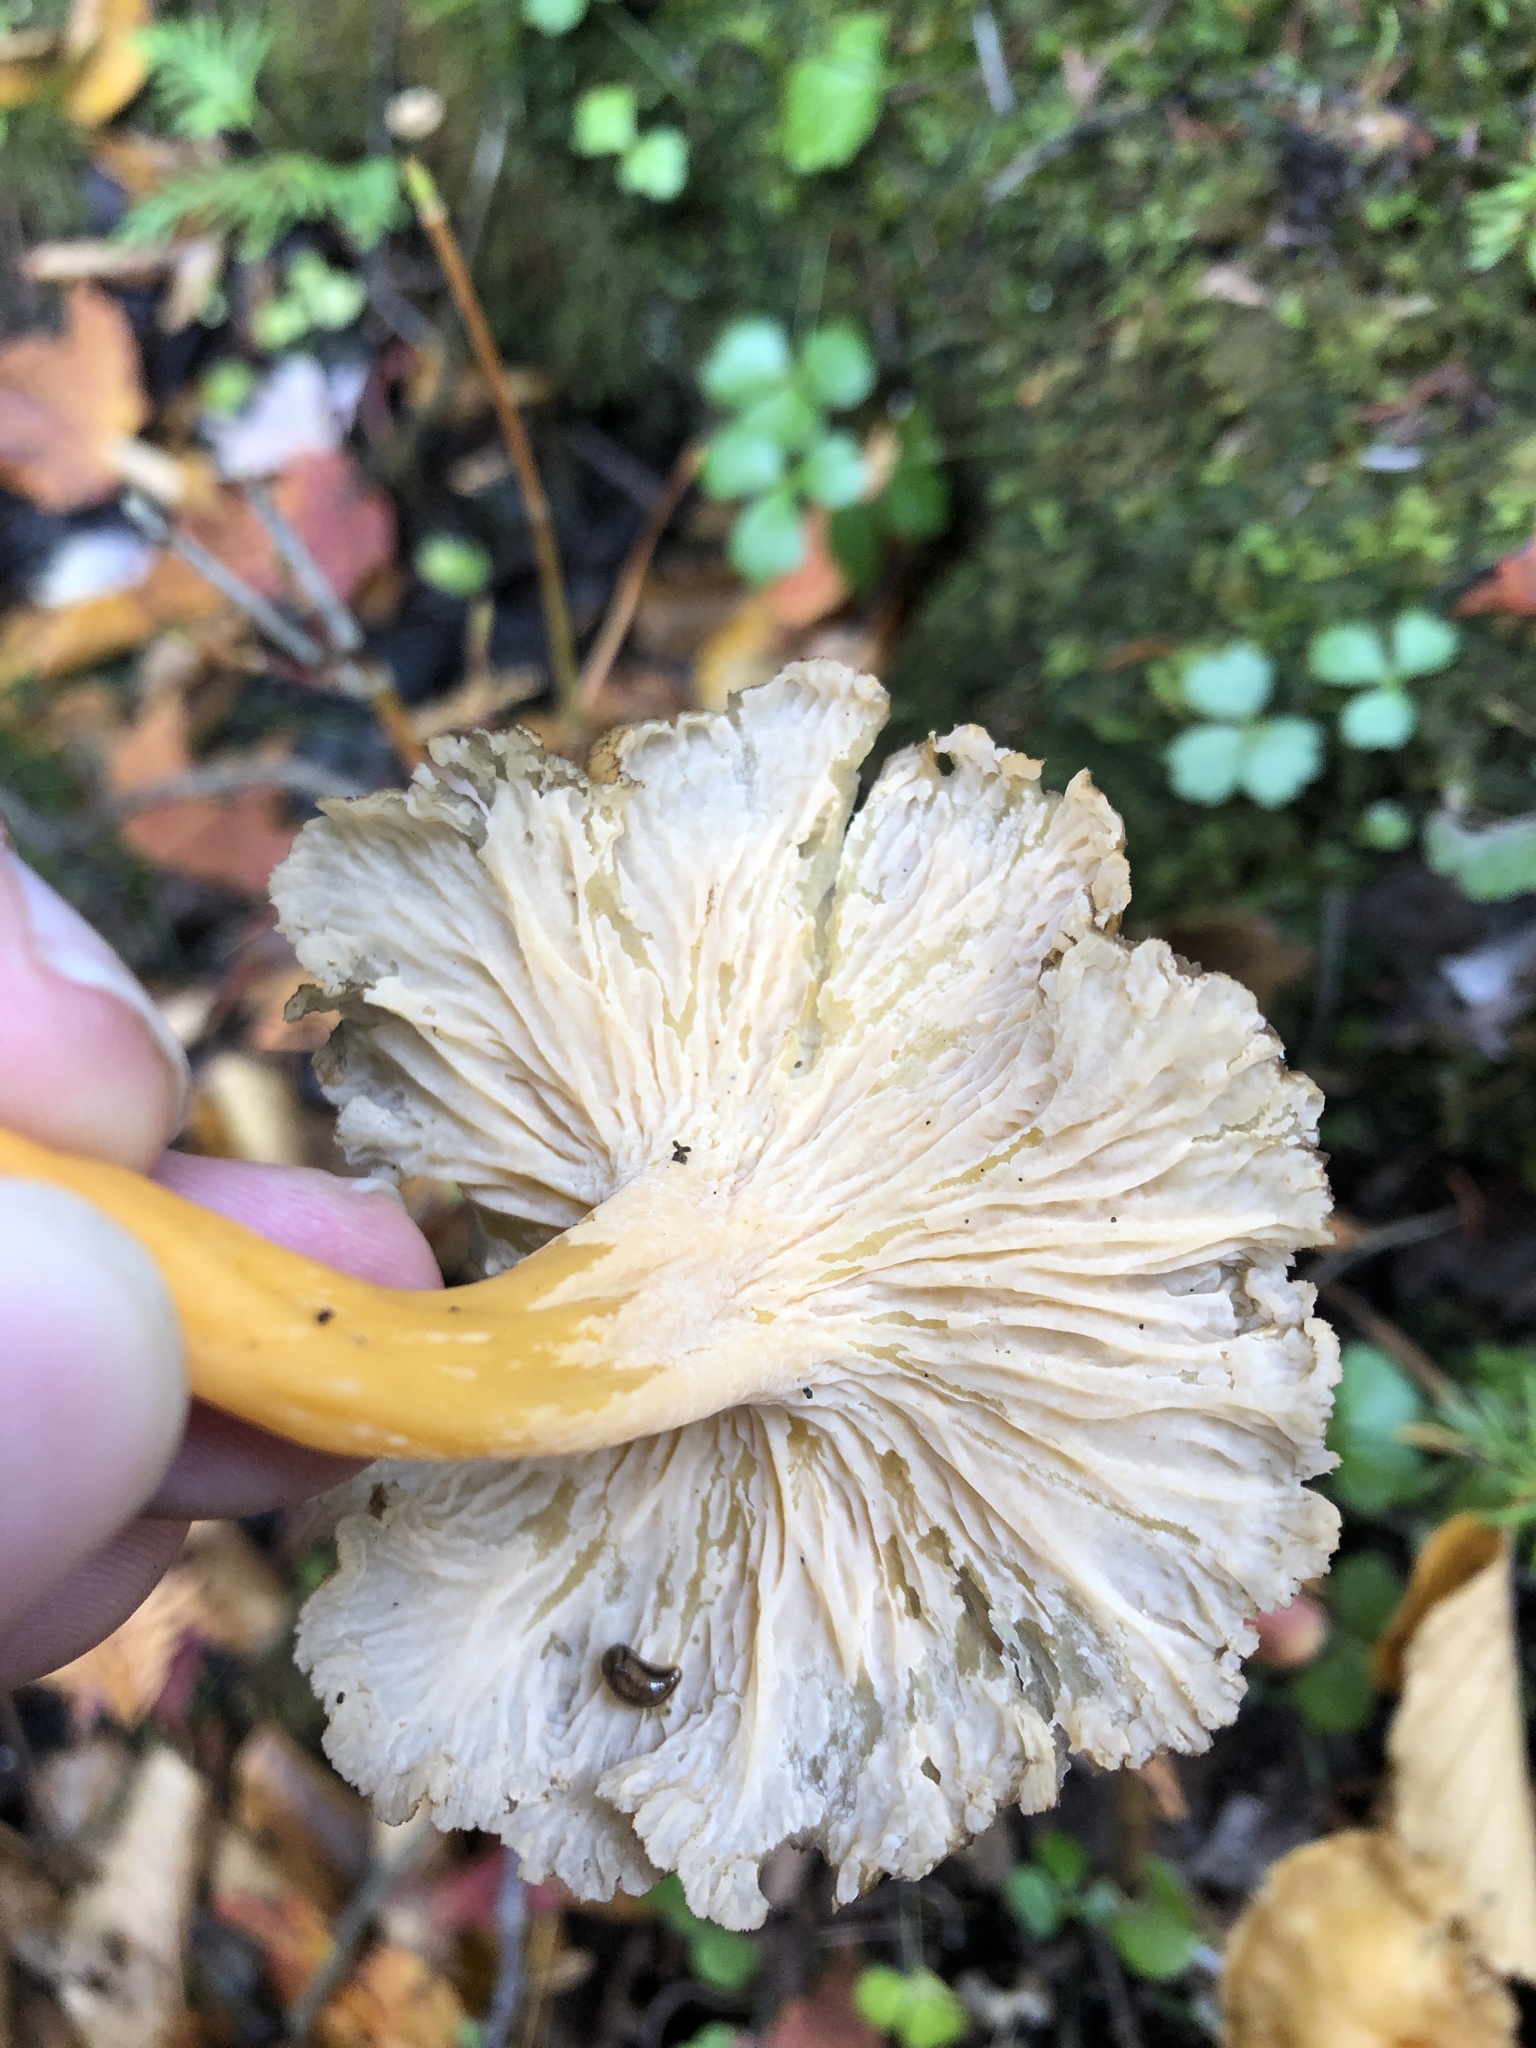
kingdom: Fungi
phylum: Basidiomycota
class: Agaricomycetes
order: Cantharellales
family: Hydnaceae
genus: Craterellus
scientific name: Craterellus tubaeformis
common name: Yellowfoot
